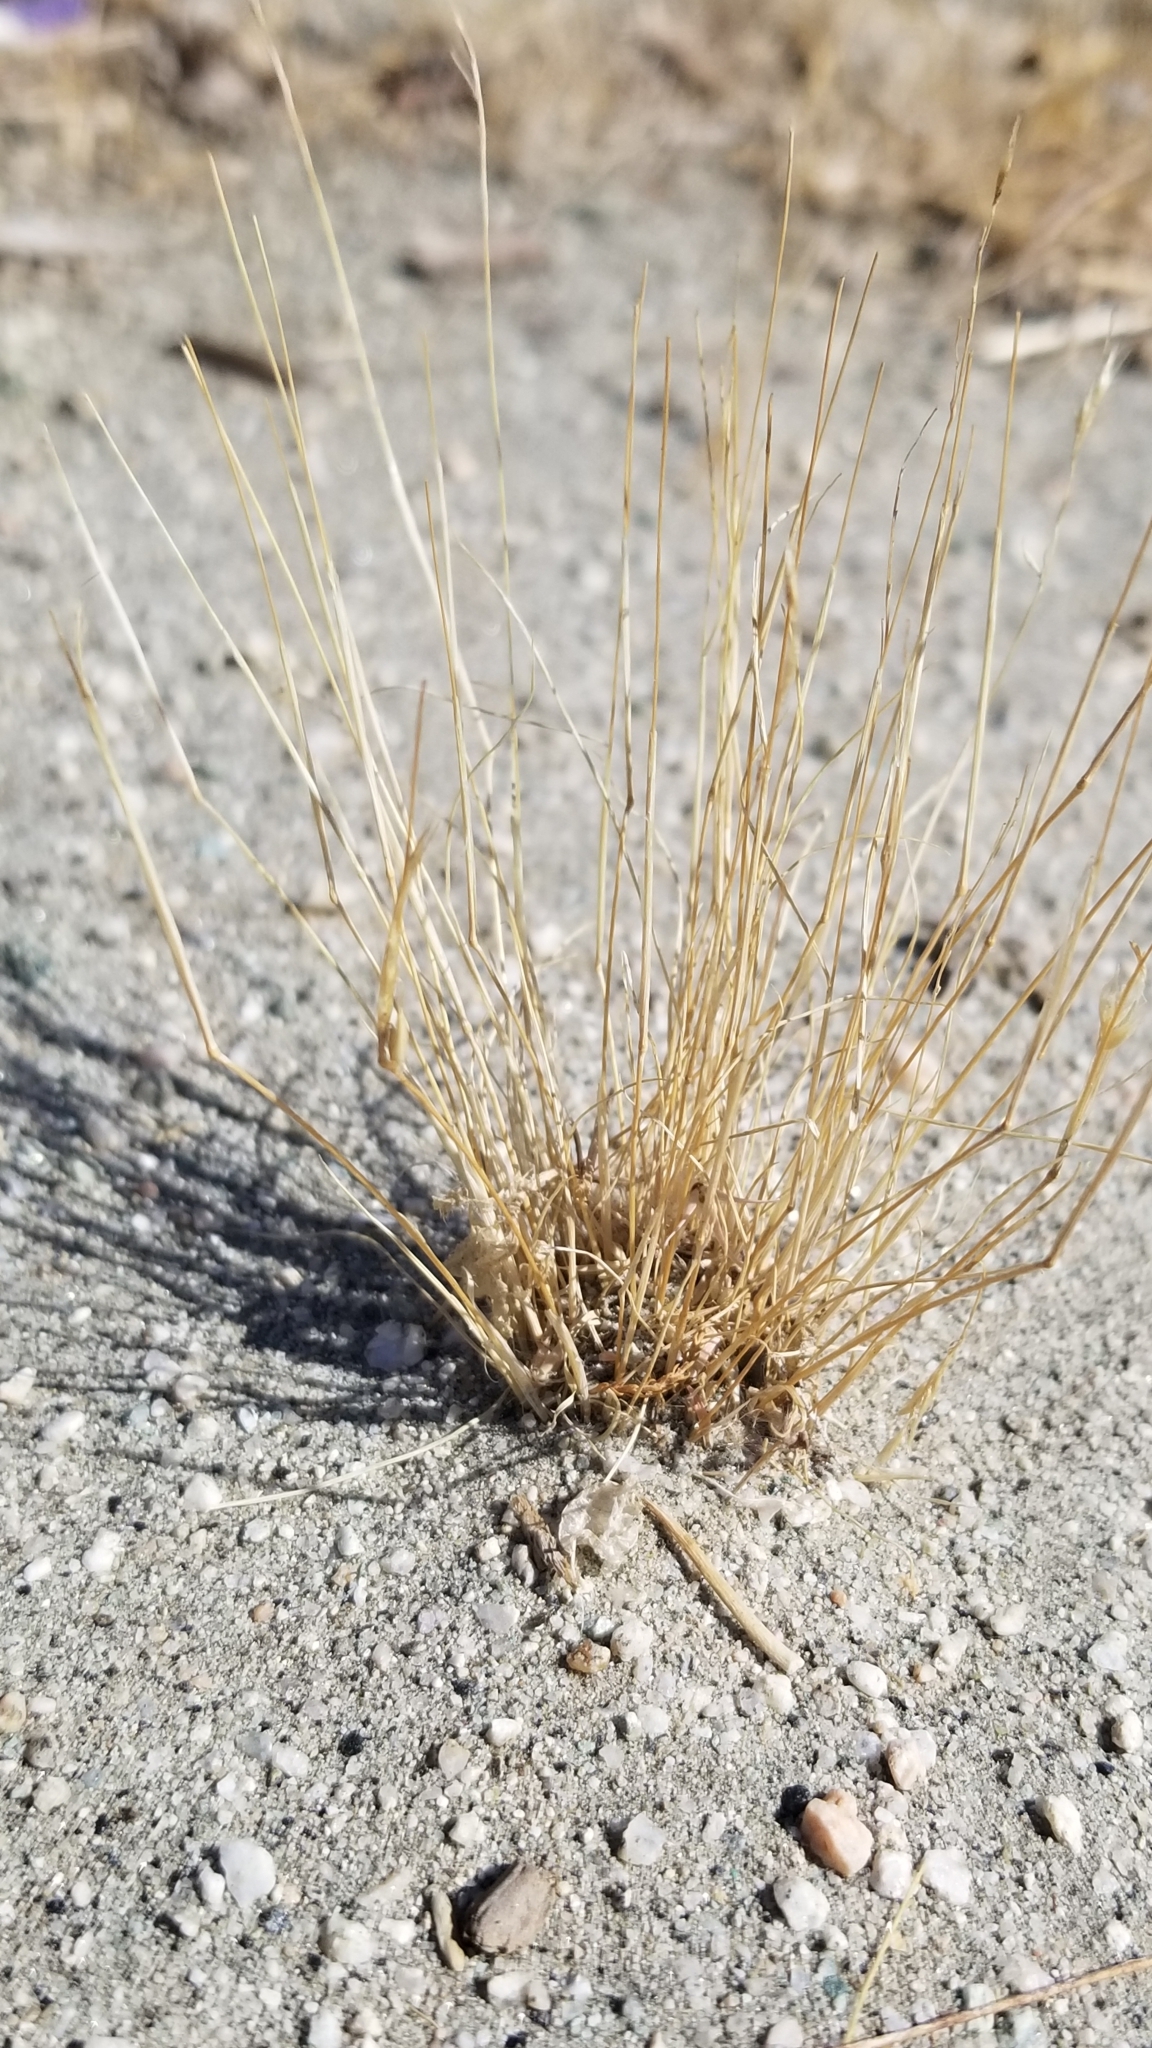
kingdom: Plantae
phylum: Tracheophyta
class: Liliopsida
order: Poales
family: Poaceae
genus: Schismus
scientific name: Schismus barbatus
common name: Kelch-grass
